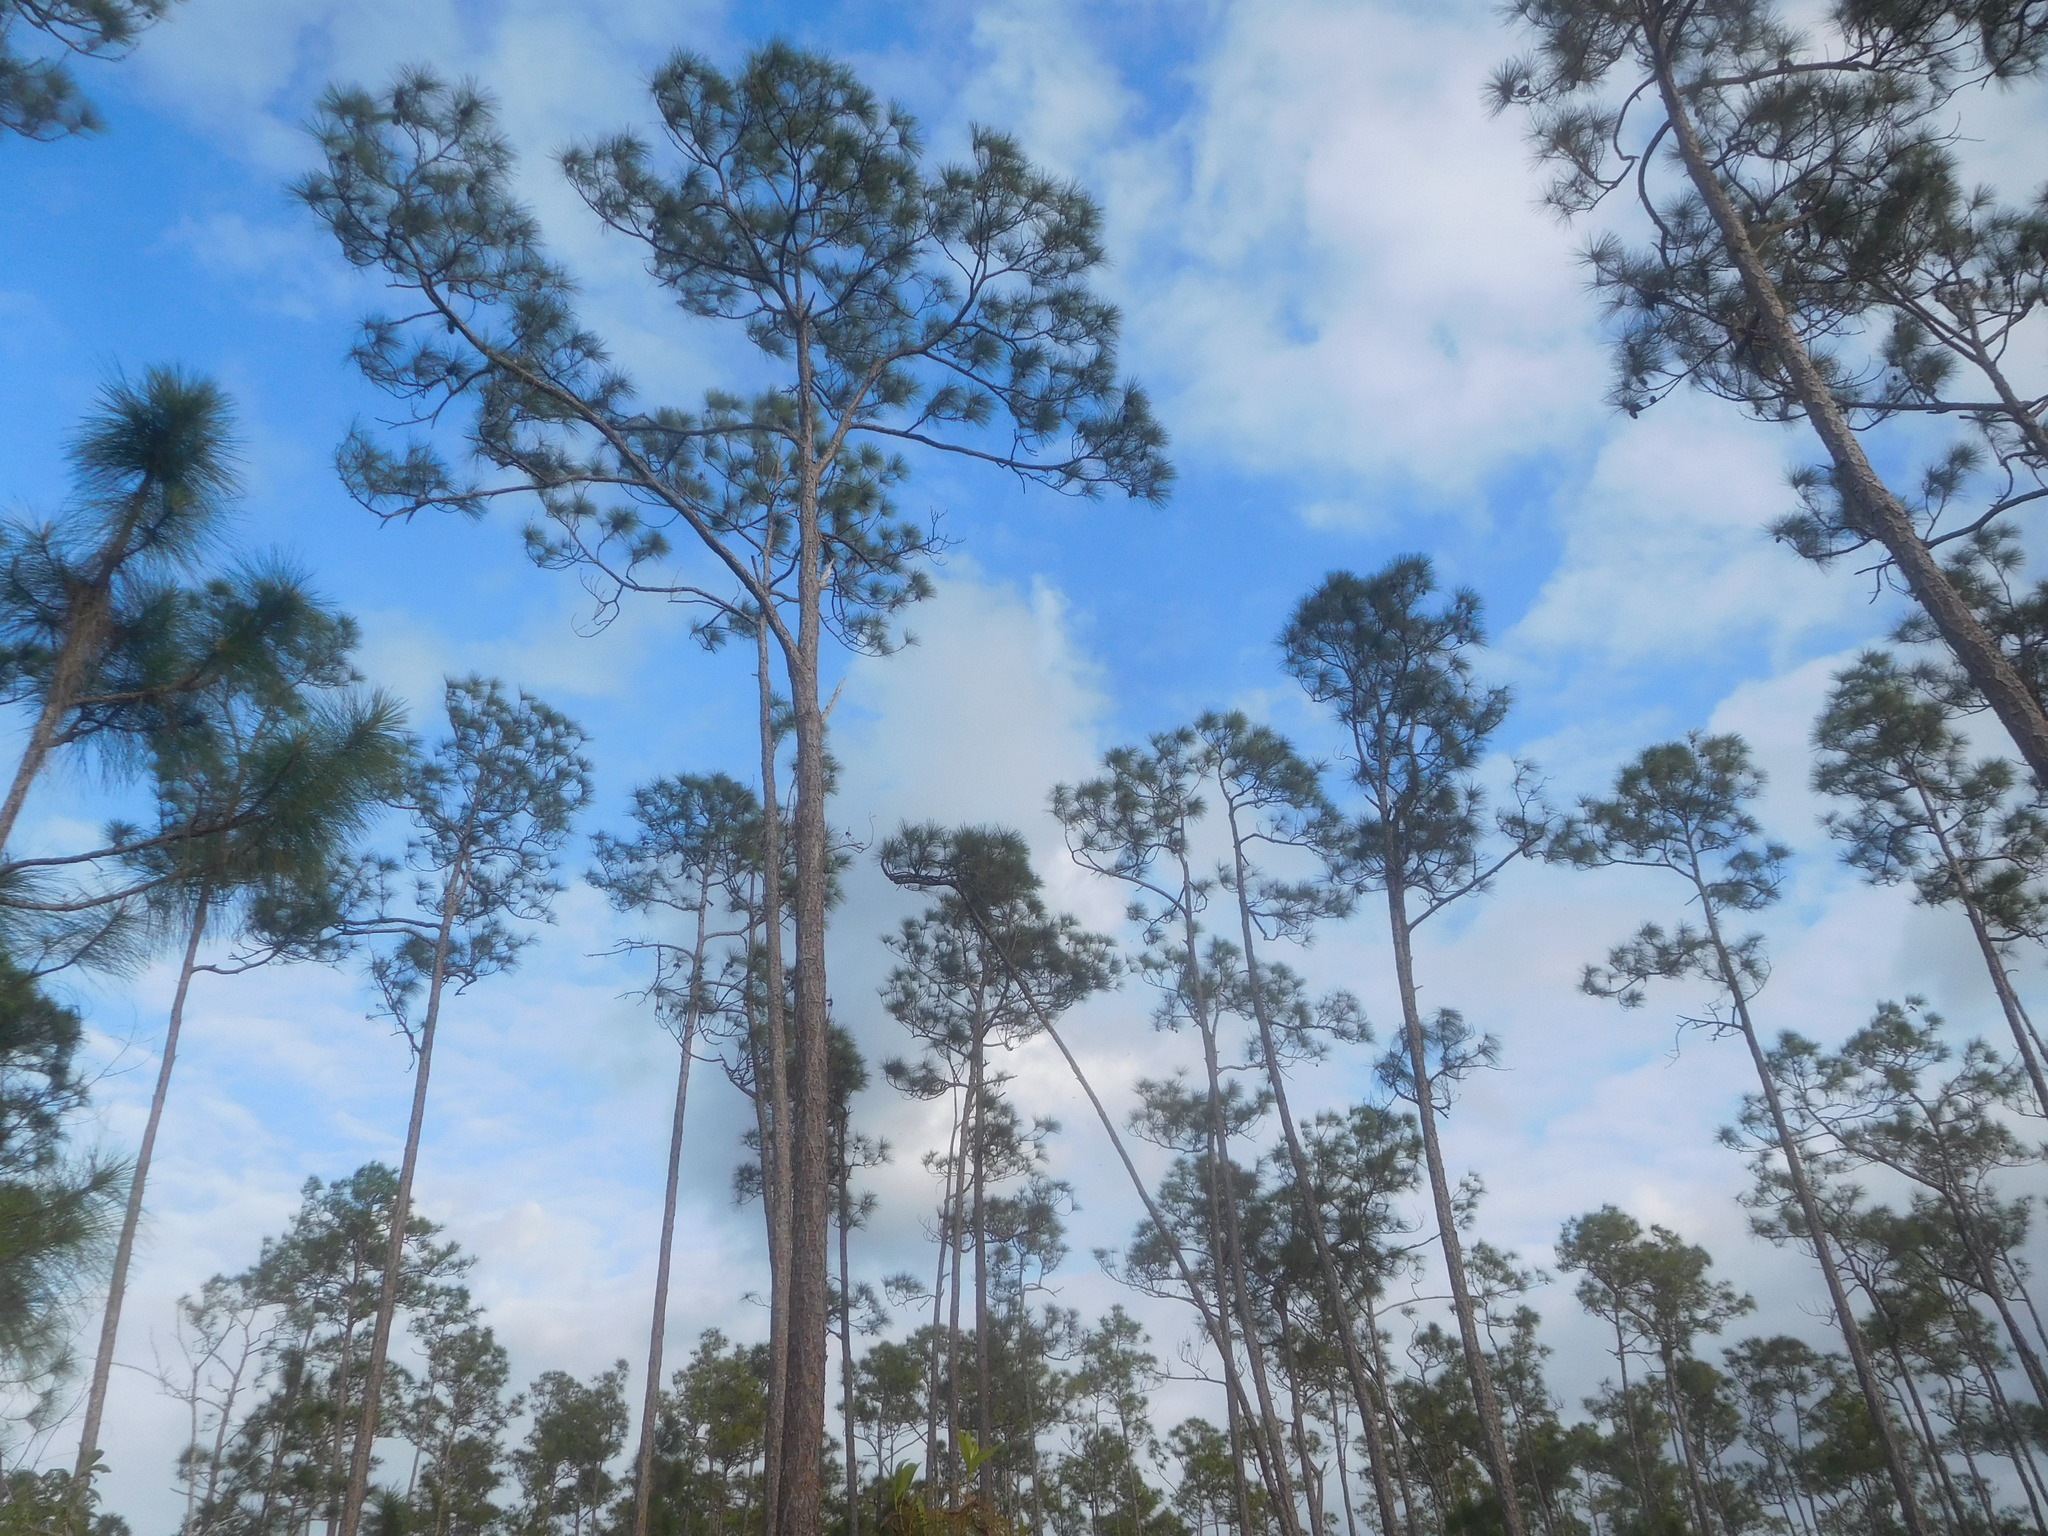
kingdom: Plantae
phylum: Tracheophyta
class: Pinopsida
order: Pinales
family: Pinaceae
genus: Pinus
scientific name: Pinus elliottii
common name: Slash pine
